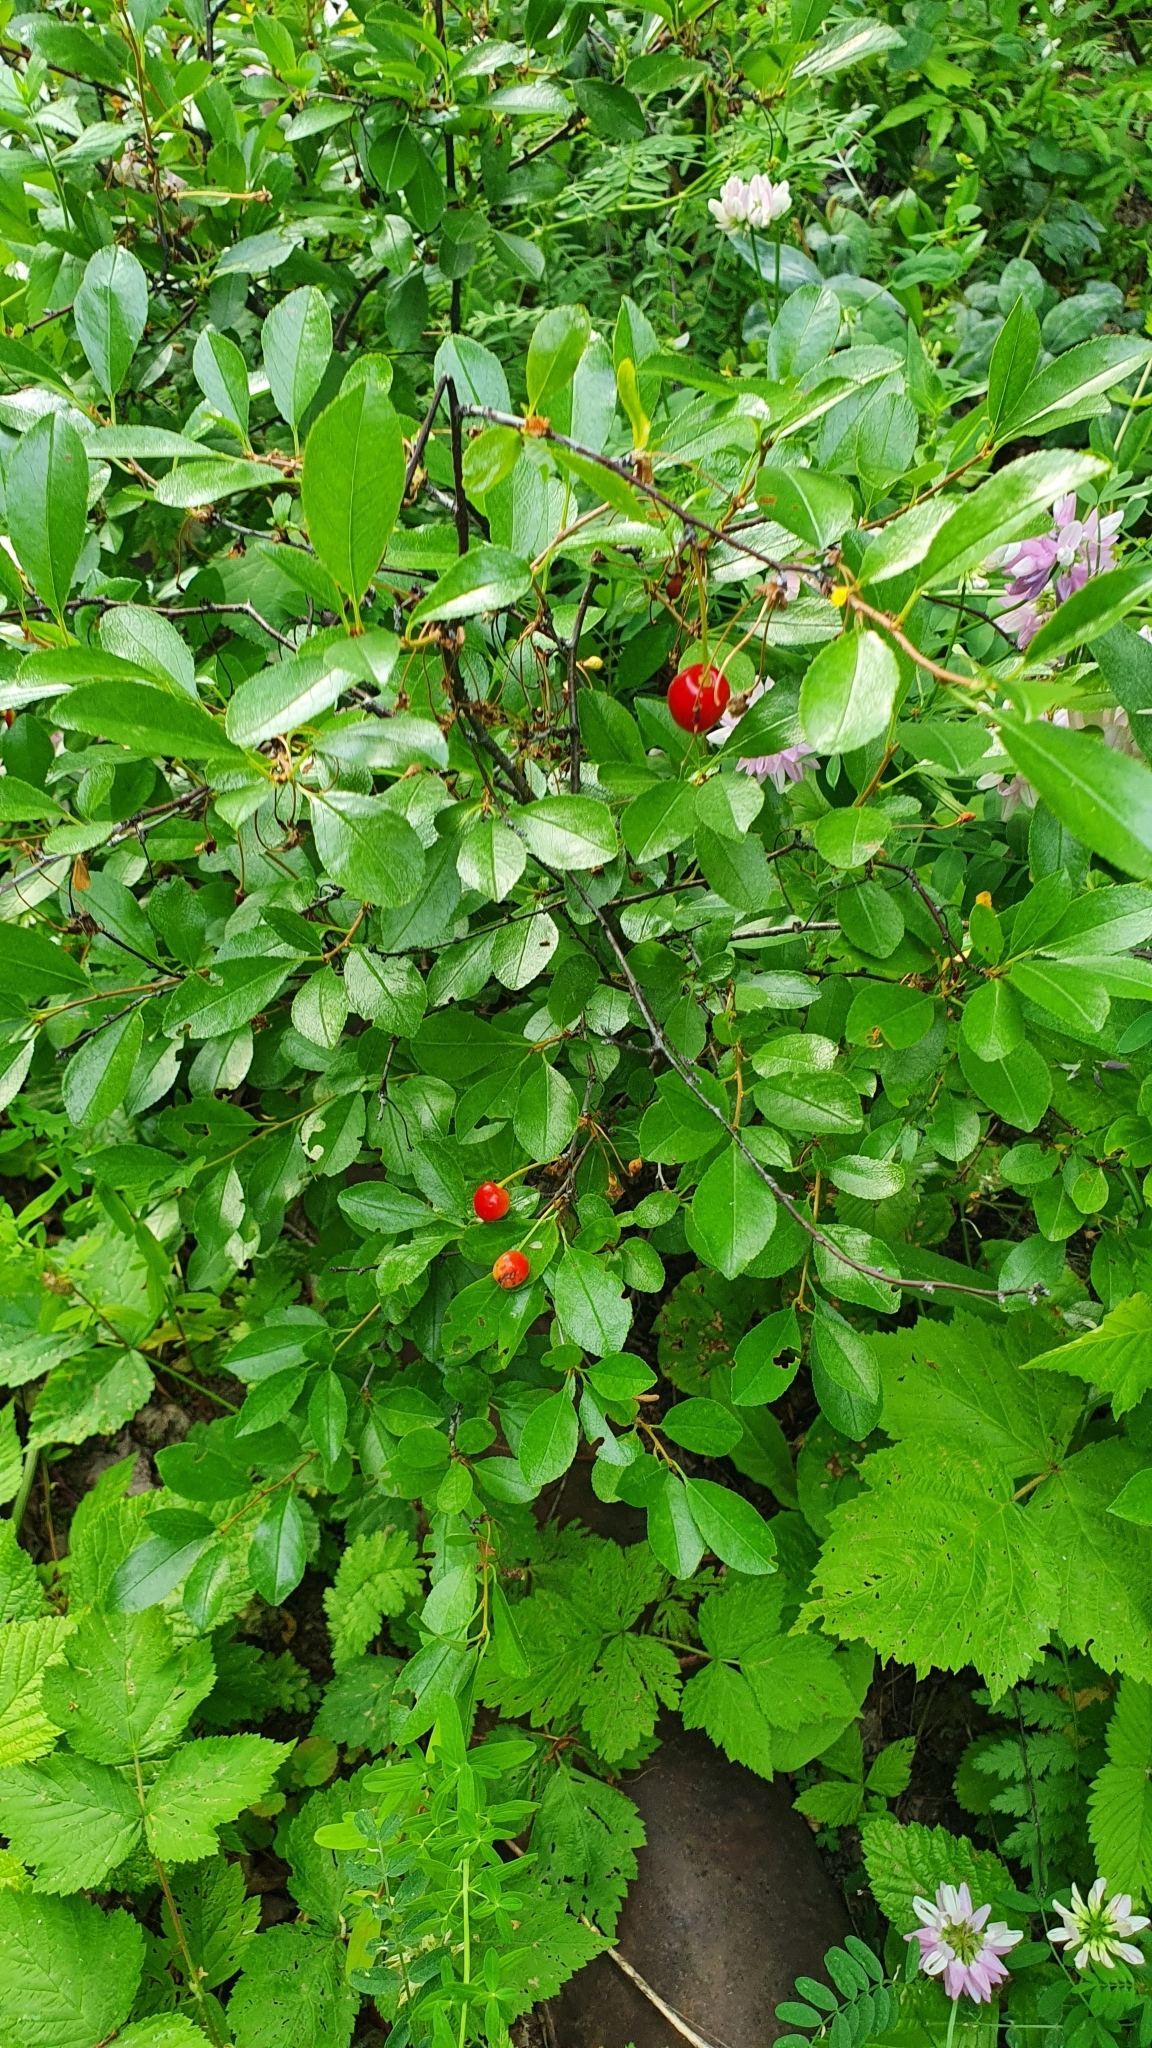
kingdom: Plantae
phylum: Tracheophyta
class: Magnoliopsida
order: Rosales
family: Rosaceae
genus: Prunus
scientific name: Prunus fruticosa
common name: European dwarf cherry
